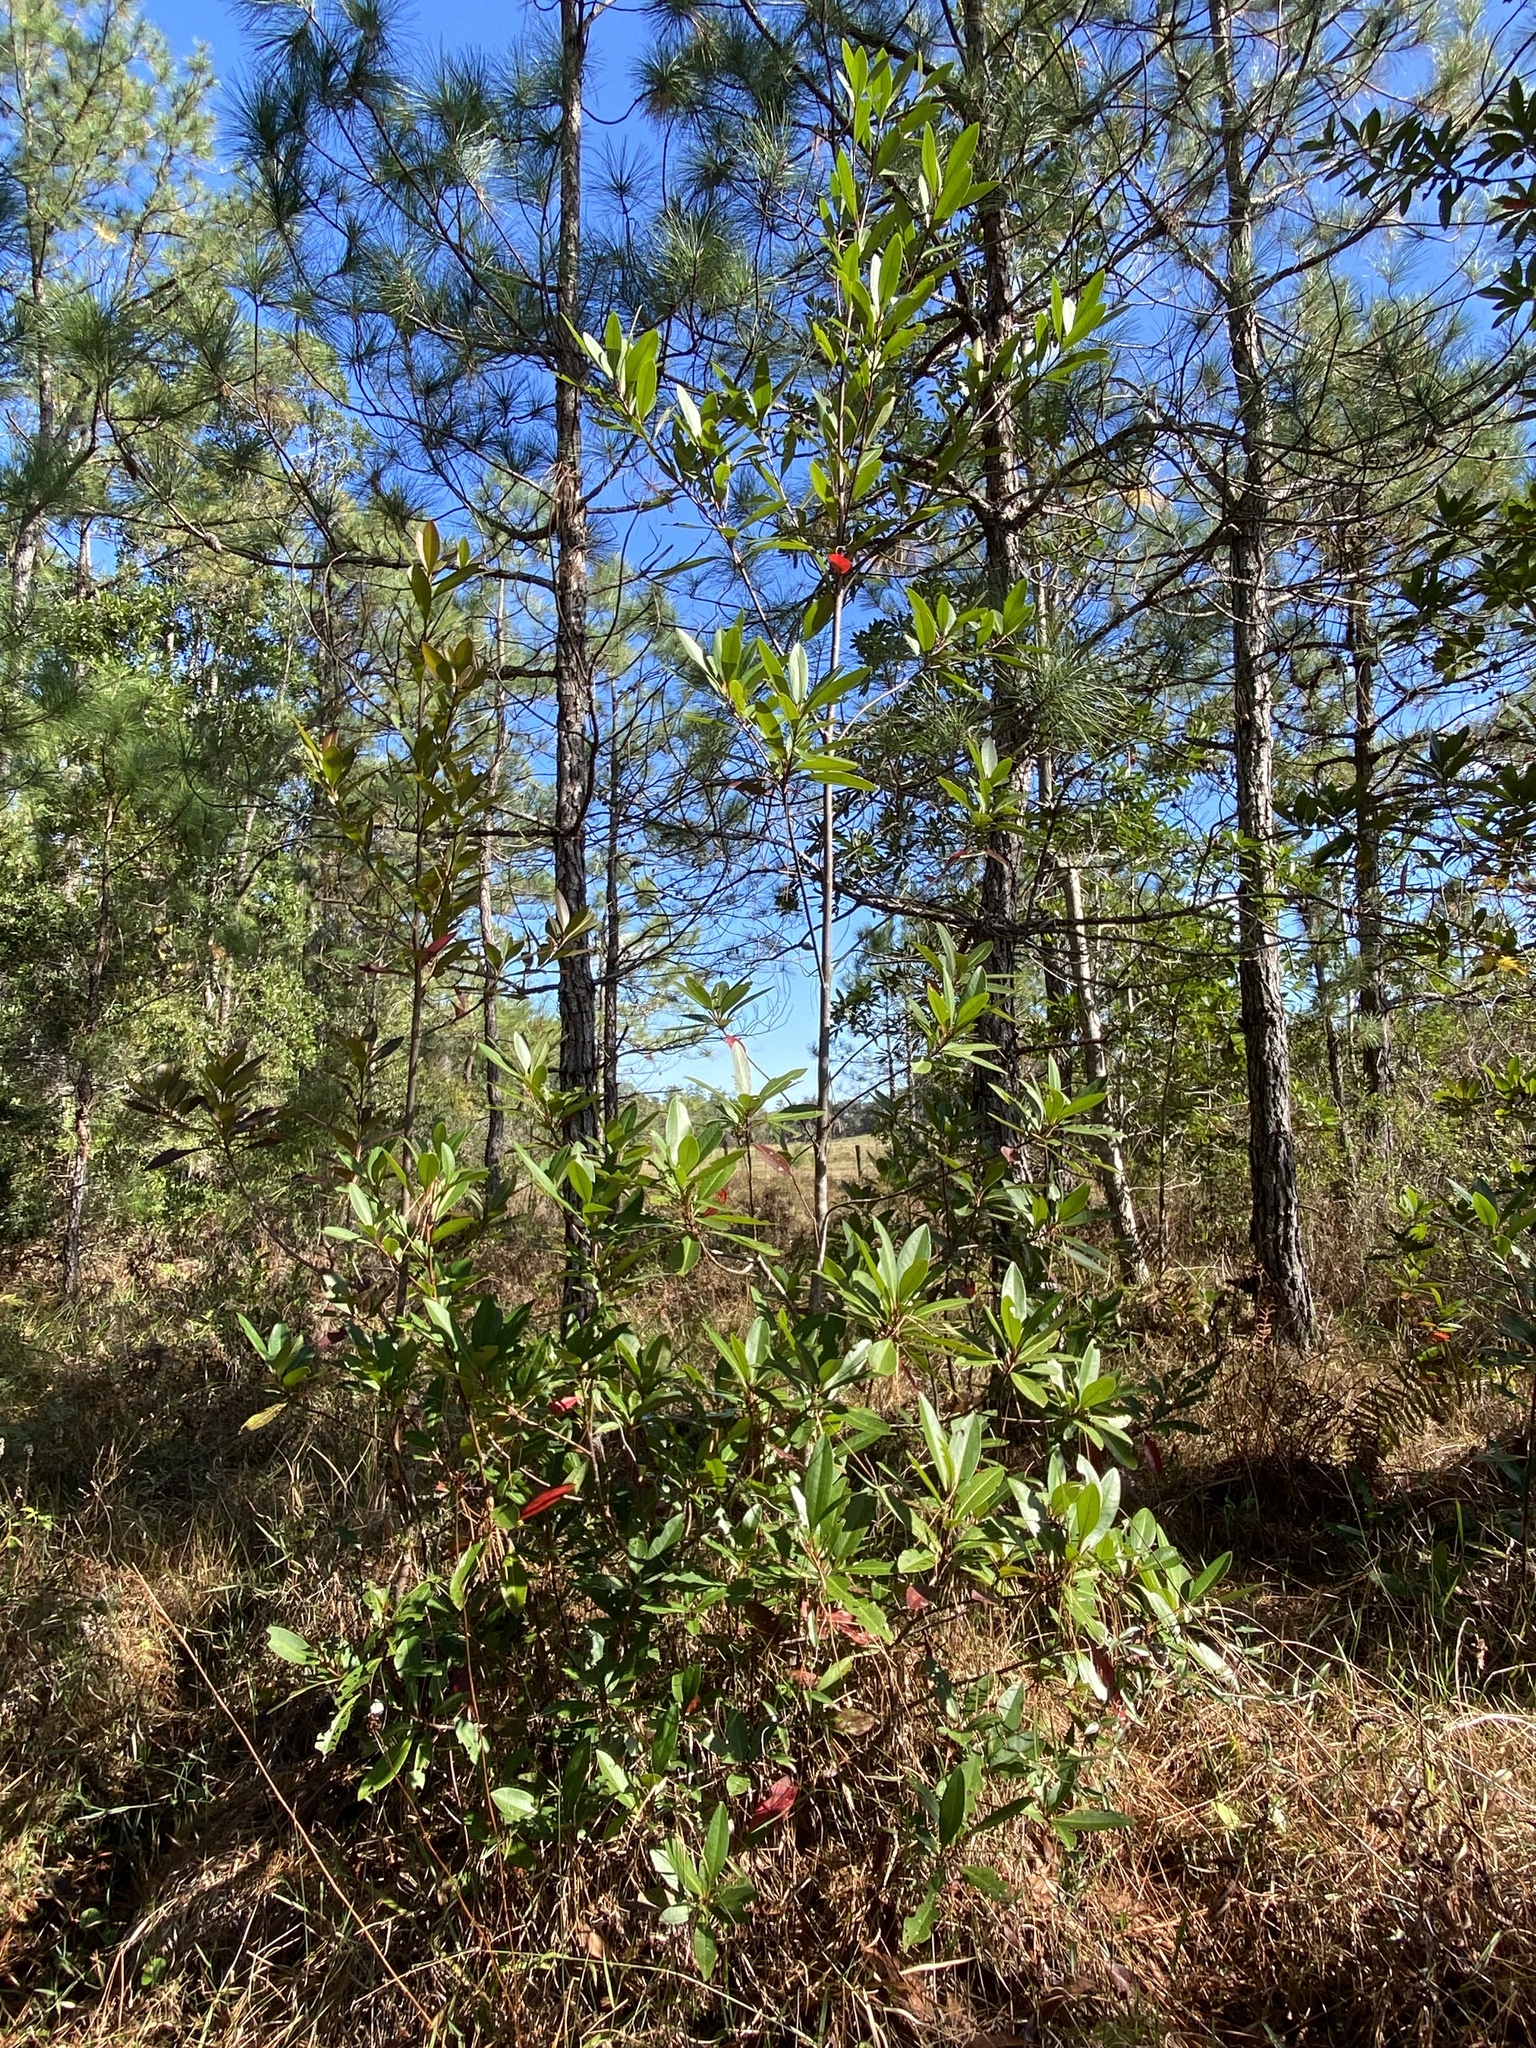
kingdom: Plantae
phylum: Tracheophyta
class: Magnoliopsida
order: Ericales
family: Theaceae
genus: Gordonia
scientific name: Gordonia lasianthus
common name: Loblolly bay
